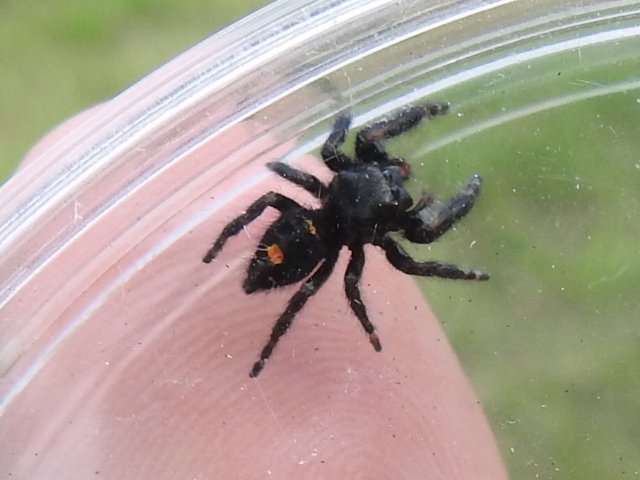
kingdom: Animalia
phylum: Arthropoda
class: Arachnida
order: Araneae
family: Salticidae
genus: Phidippus
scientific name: Phidippus audax
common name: Bold jumper
